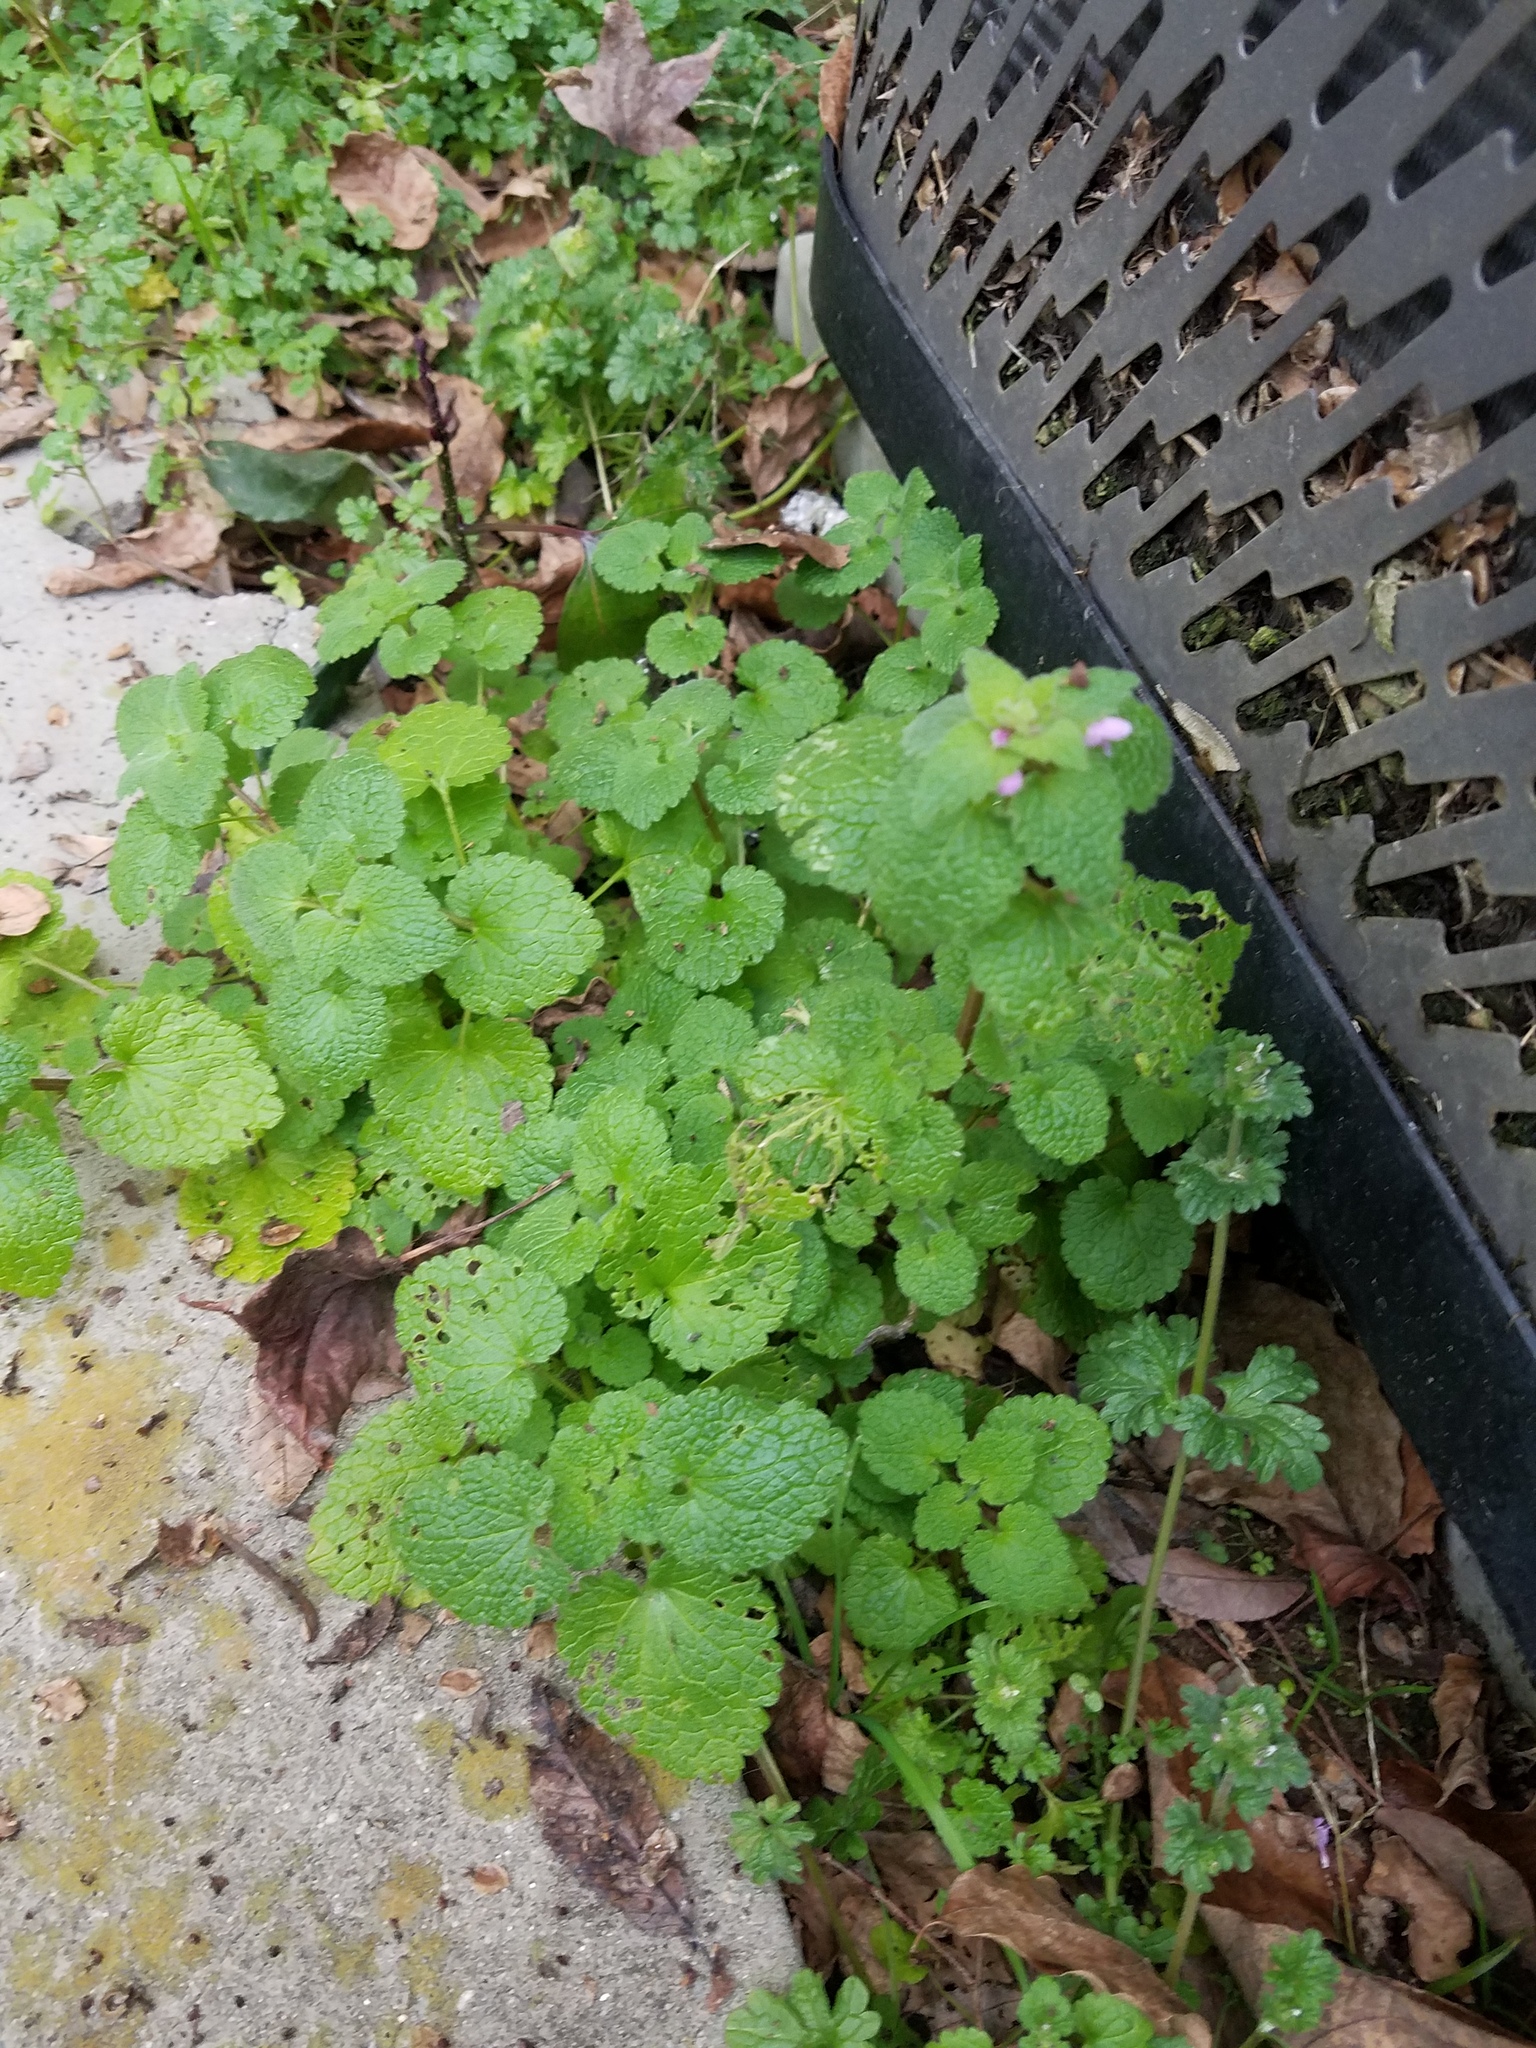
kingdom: Plantae
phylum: Tracheophyta
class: Magnoliopsida
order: Lamiales
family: Lamiaceae
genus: Lamium
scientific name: Lamium purpureum
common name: Red dead-nettle
